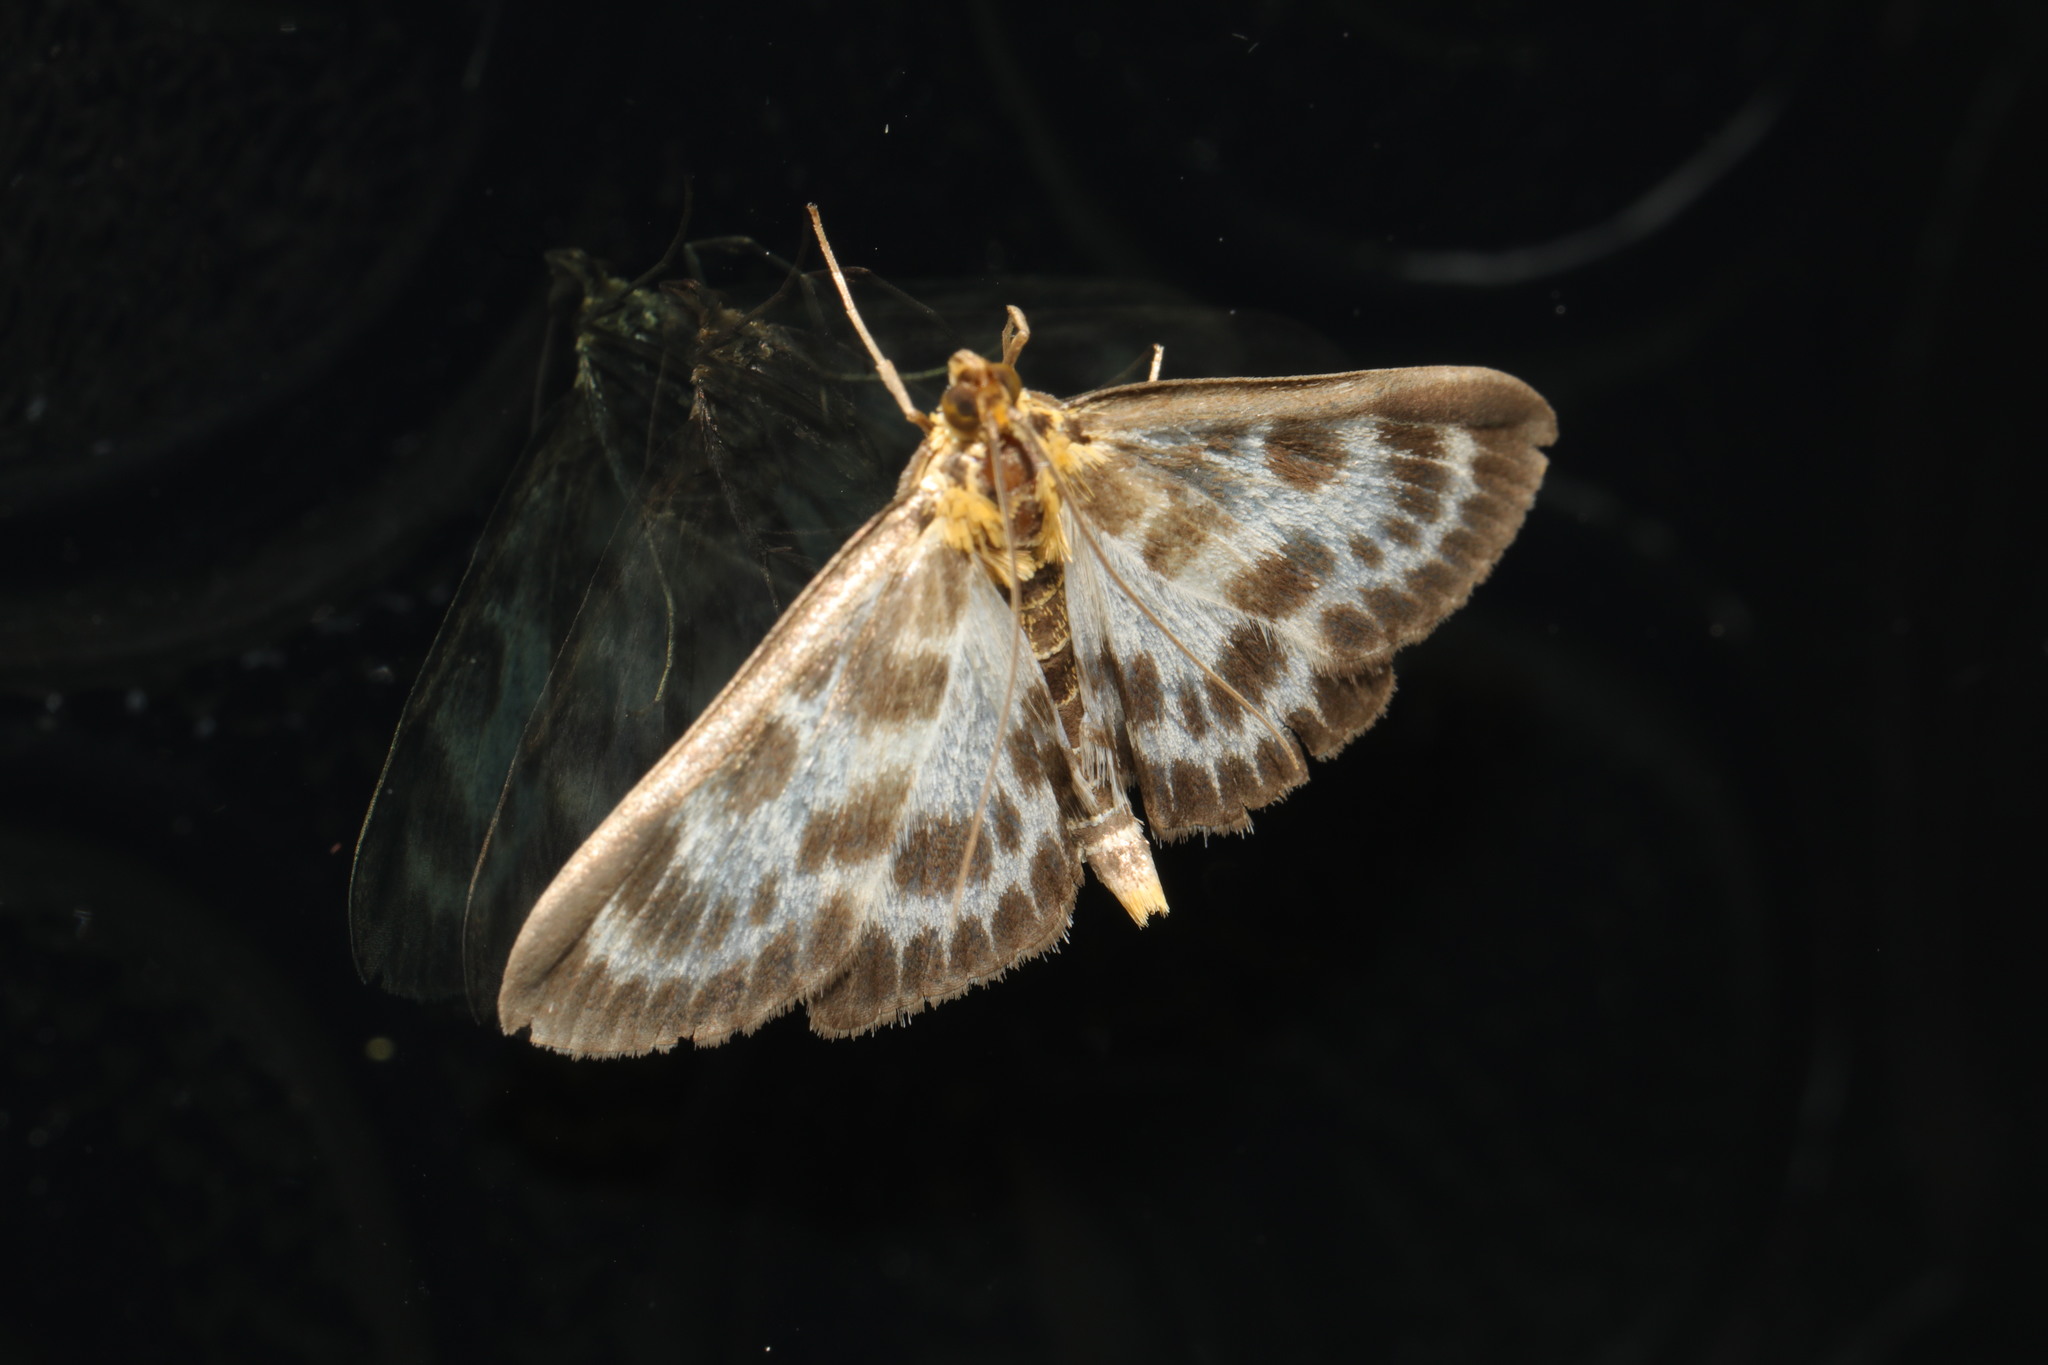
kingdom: Animalia
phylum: Arthropoda
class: Insecta
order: Lepidoptera
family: Crambidae
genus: Anania
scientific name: Anania hortulata
